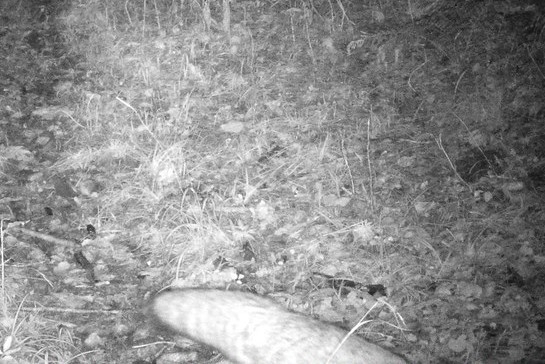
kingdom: Animalia
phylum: Chordata
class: Mammalia
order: Carnivora
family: Canidae
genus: Vulpes
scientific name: Vulpes vulpes
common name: Red fox
